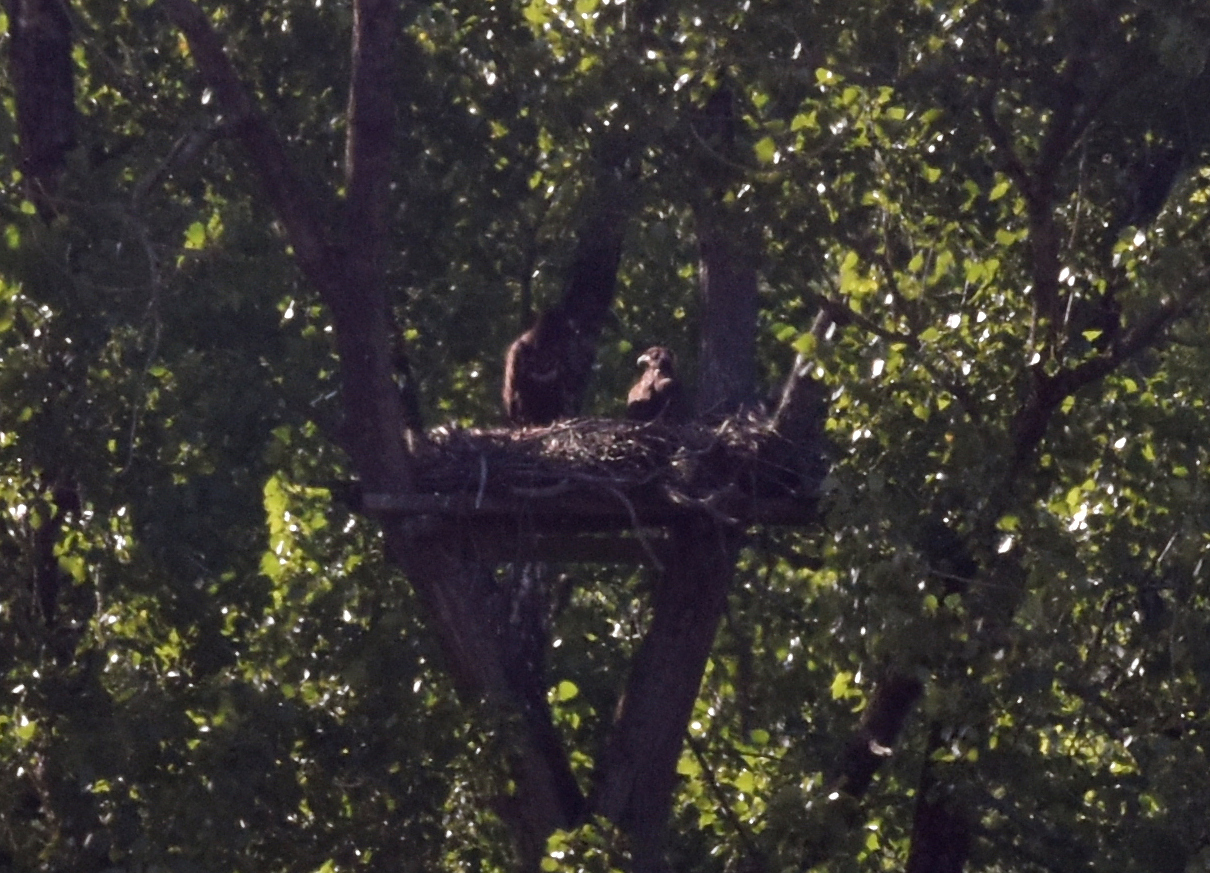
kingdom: Animalia
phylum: Chordata
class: Aves
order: Accipitriformes
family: Accipitridae
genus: Haliaeetus
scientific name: Haliaeetus albicilla
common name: White-tailed eagle
